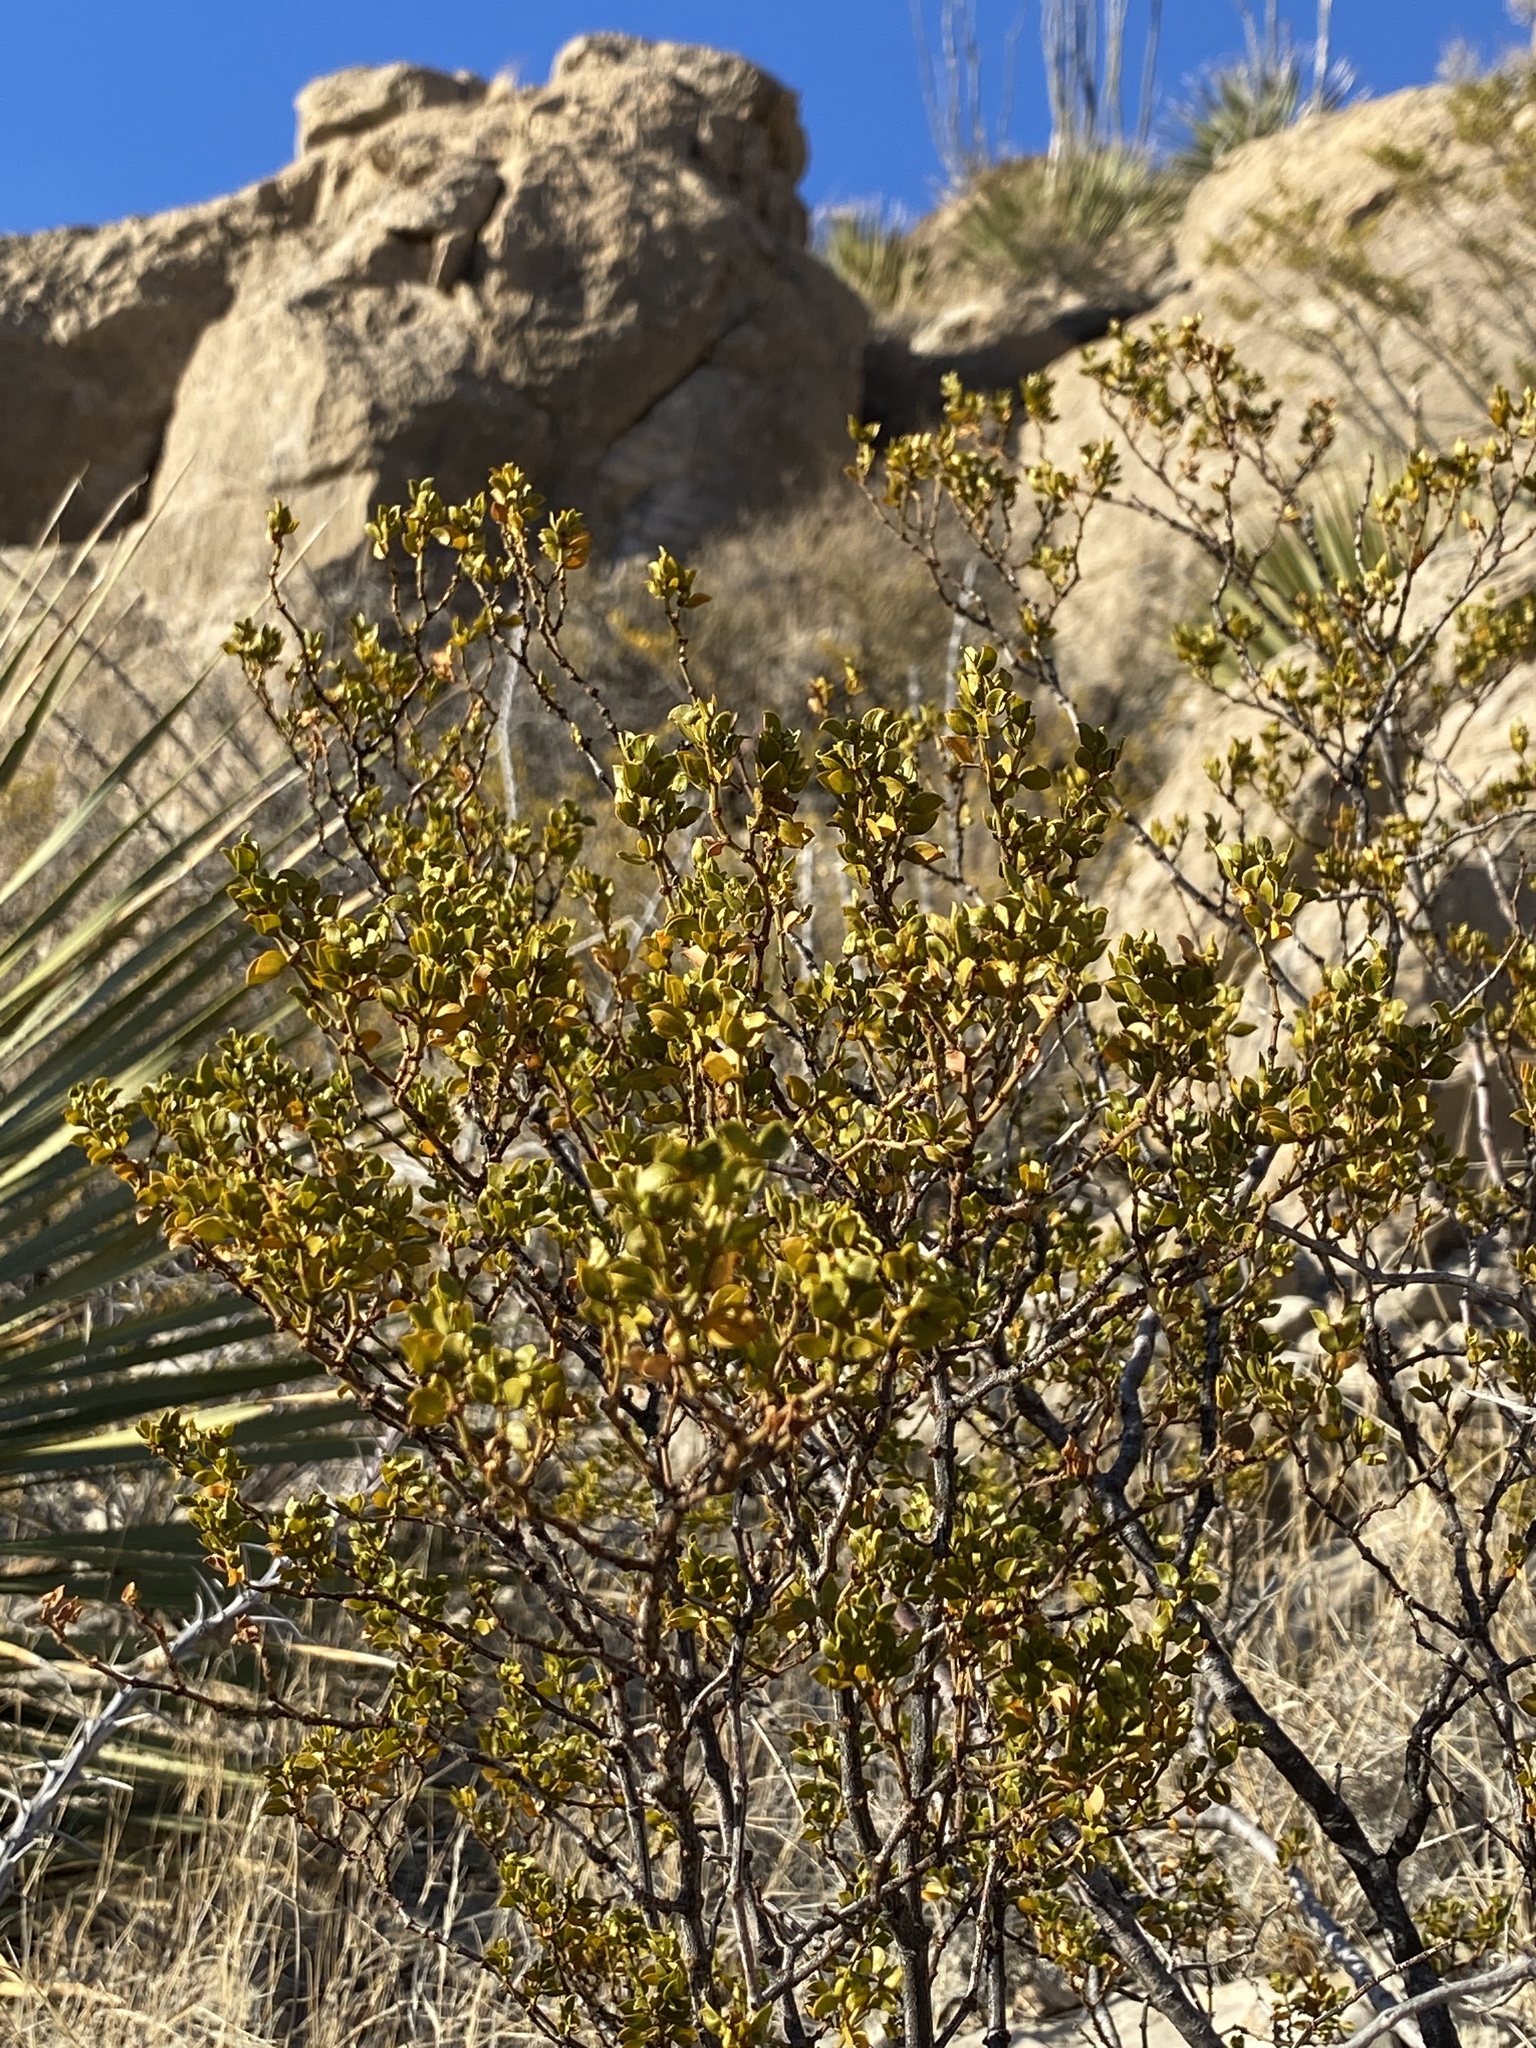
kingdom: Plantae
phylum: Tracheophyta
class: Magnoliopsida
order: Zygophyllales
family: Zygophyllaceae
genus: Larrea
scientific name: Larrea tridentata
